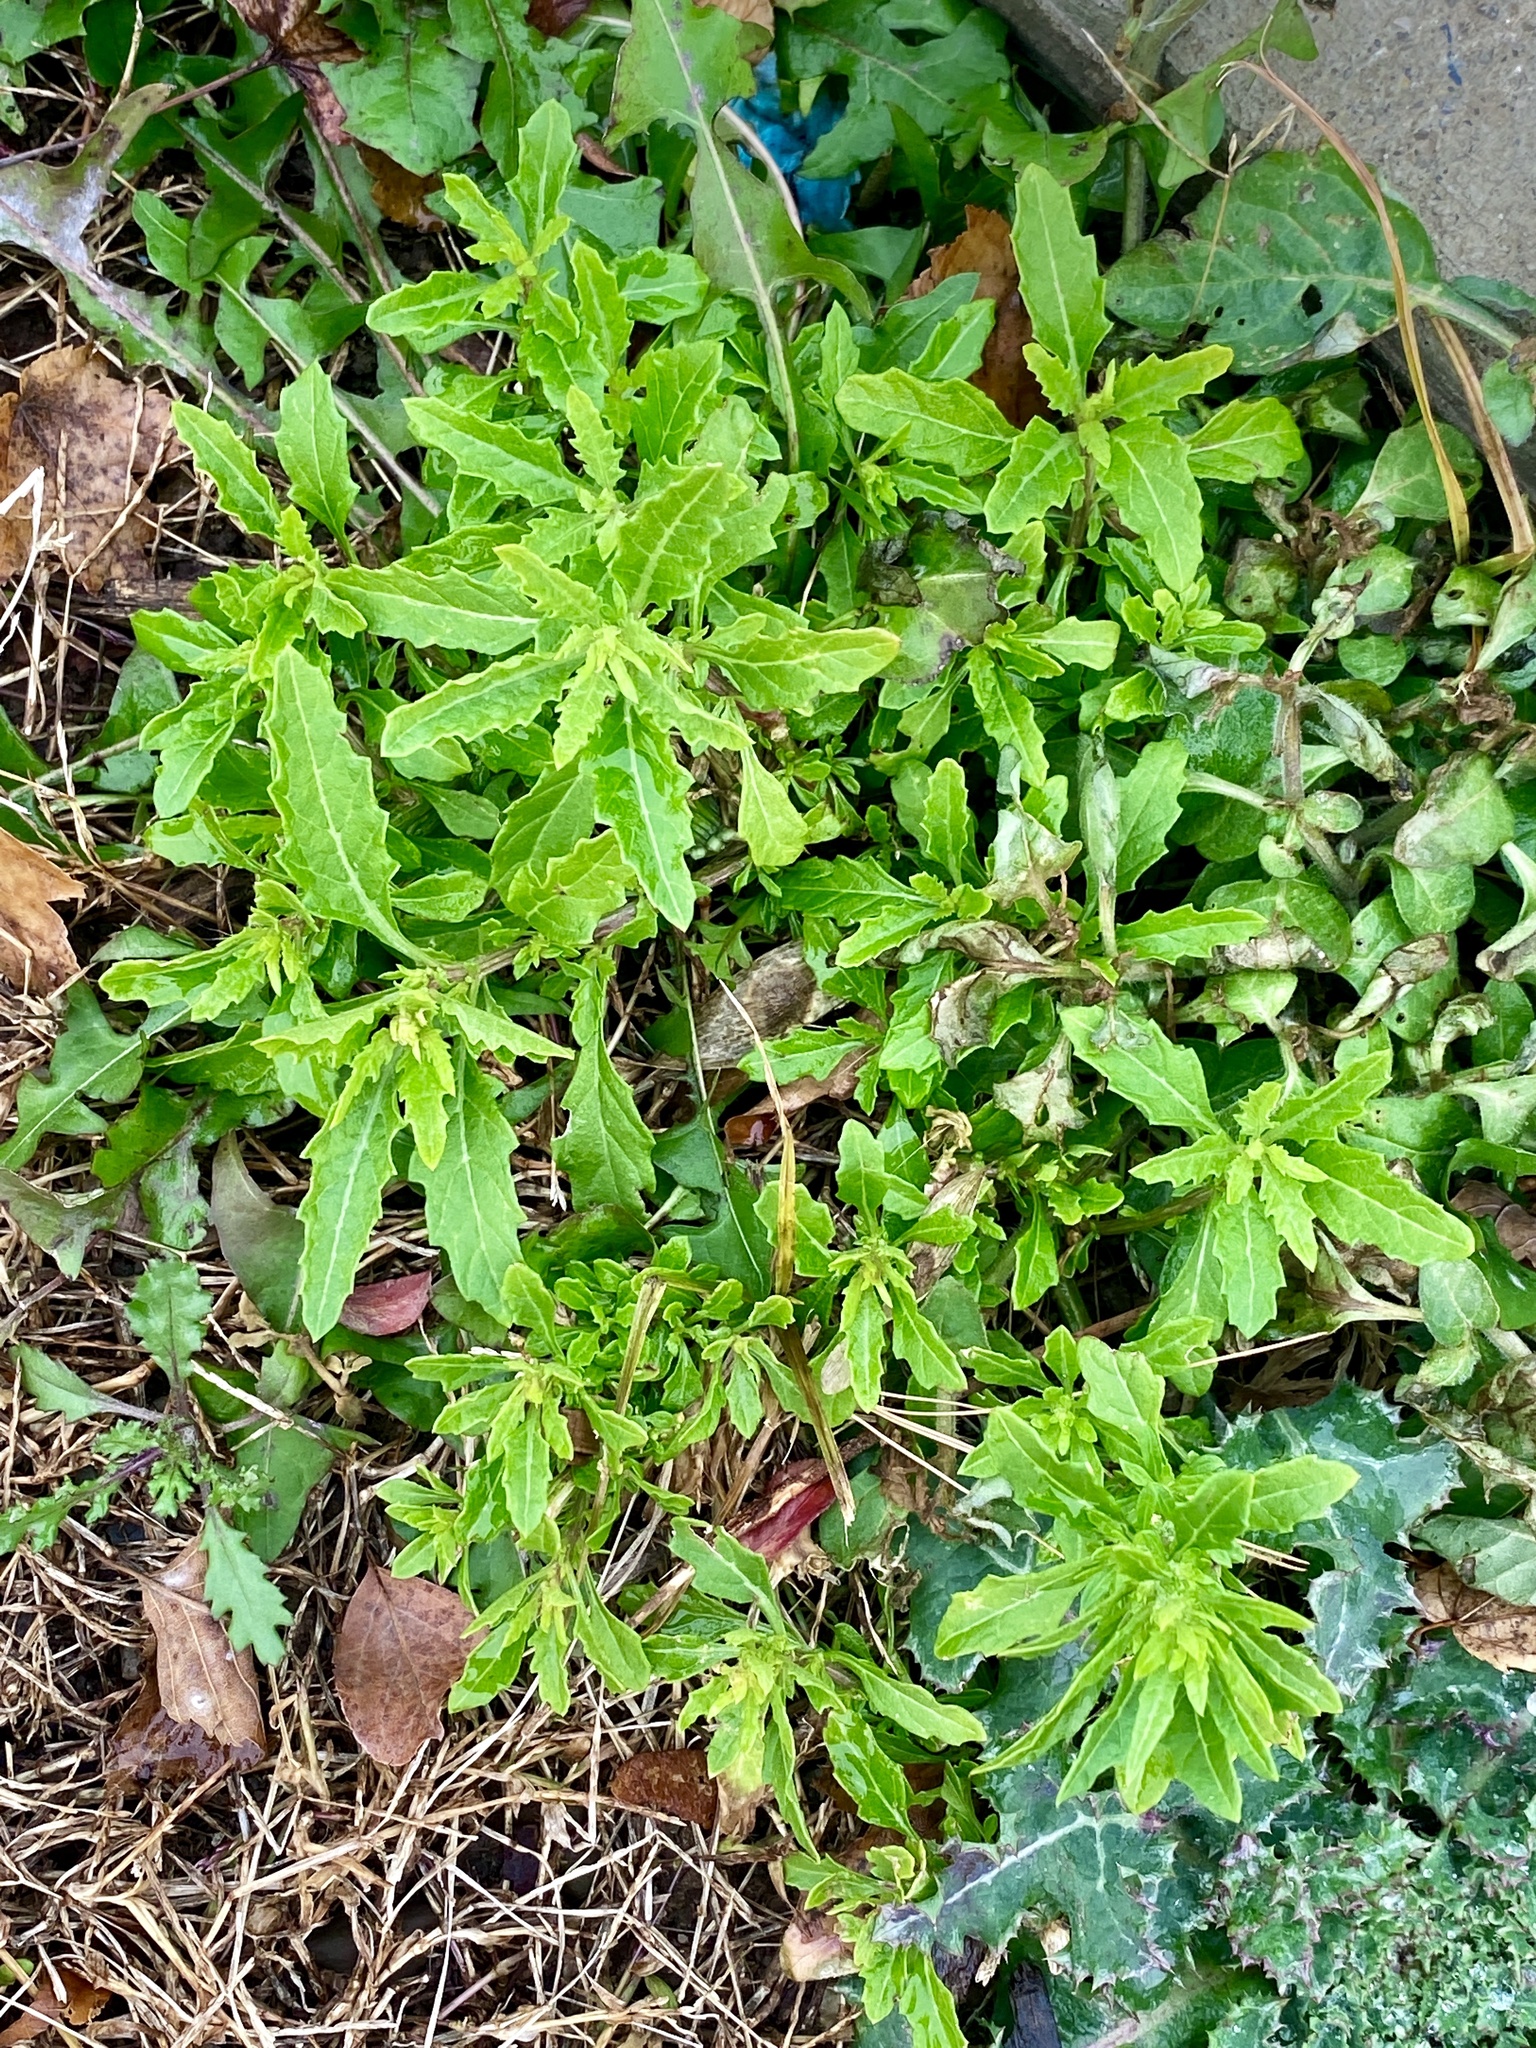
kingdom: Plantae
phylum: Tracheophyta
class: Magnoliopsida
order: Caryophyllales
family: Amaranthaceae
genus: Dysphania
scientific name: Dysphania ambrosioides
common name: Wormseed
